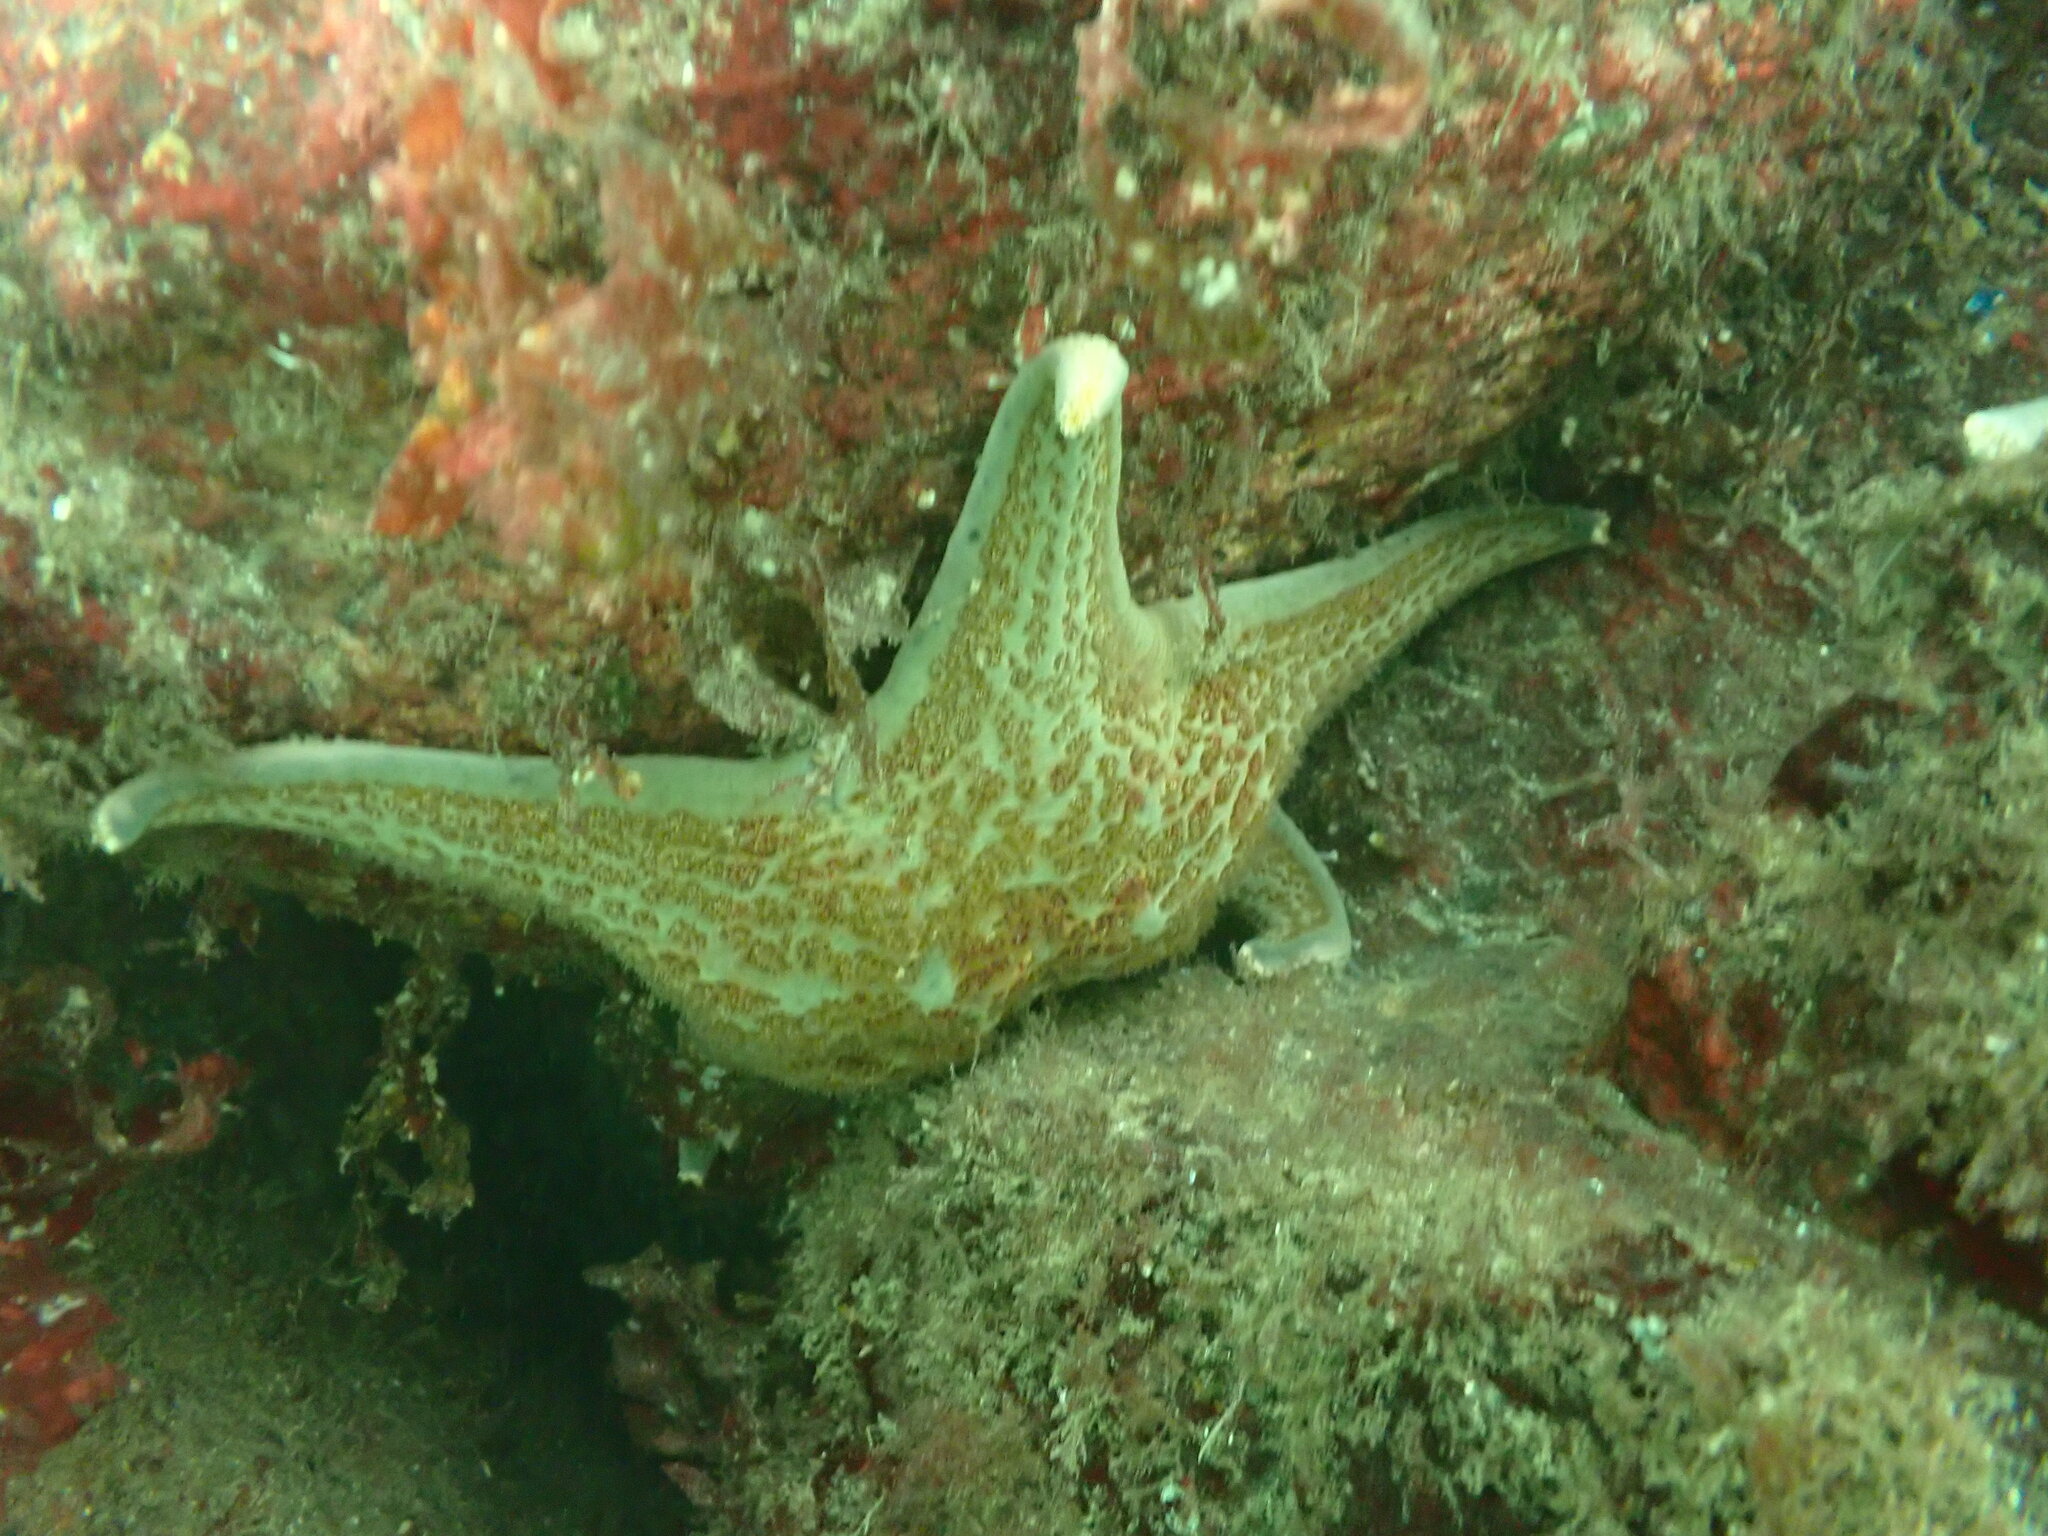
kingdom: Animalia
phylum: Echinodermata
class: Asteroidea
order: Valvatida
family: Asteropseidae
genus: Dermasterias
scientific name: Dermasterias imbricata
